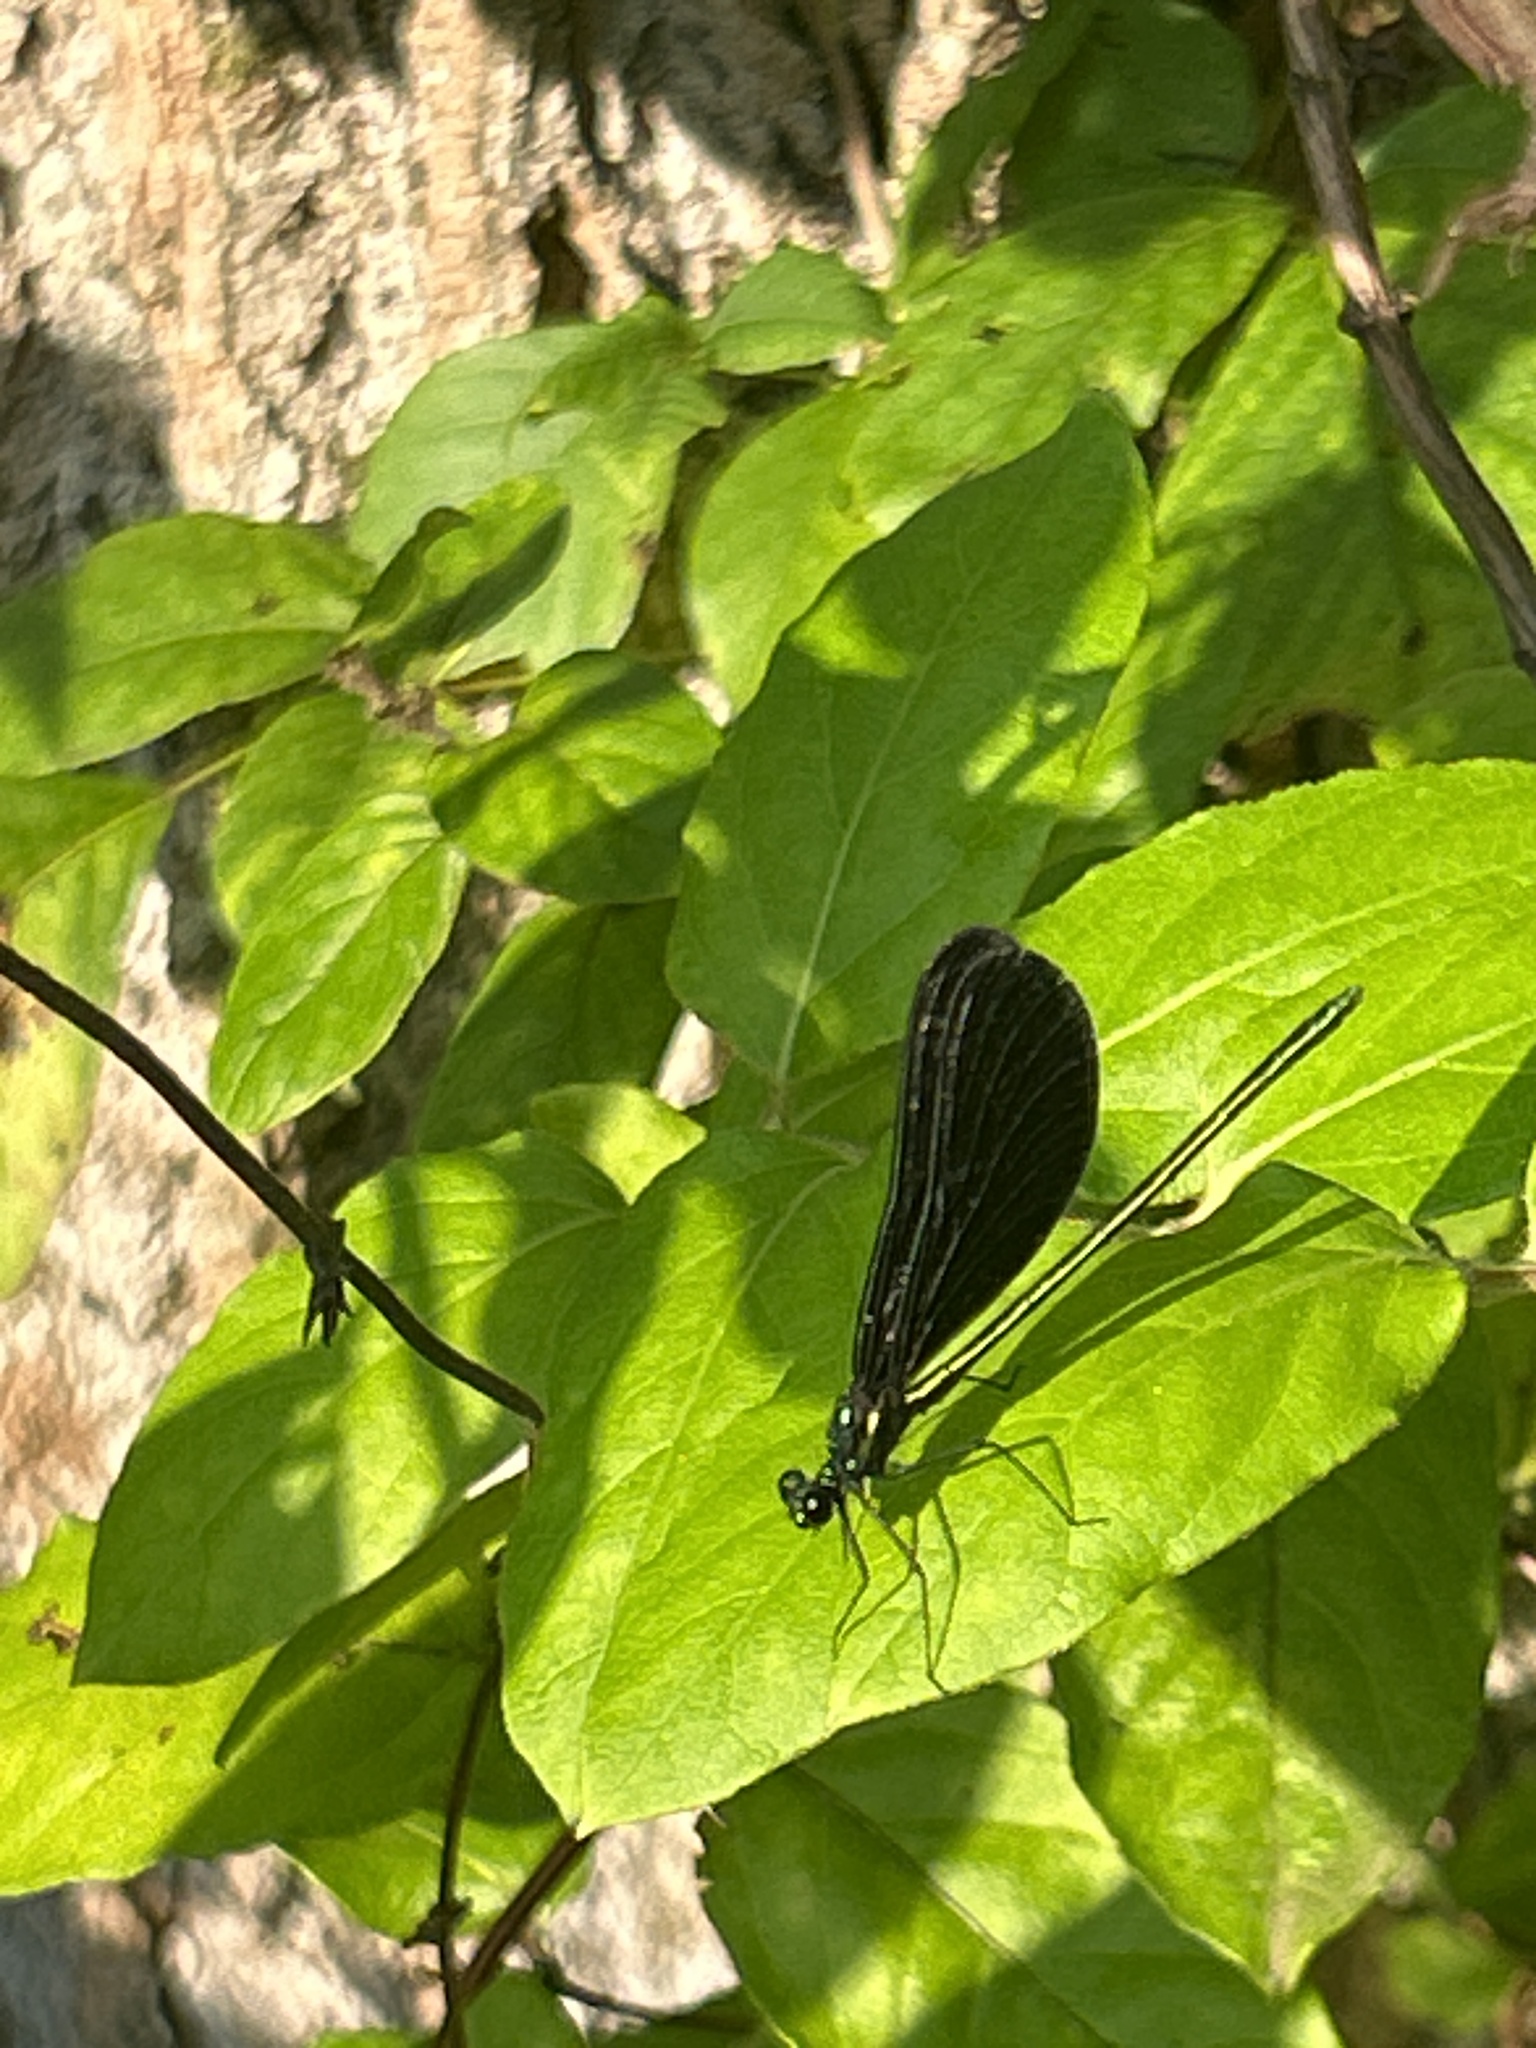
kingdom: Animalia
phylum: Arthropoda
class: Insecta
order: Odonata
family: Calopterygidae
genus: Calopteryx
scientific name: Calopteryx maculata
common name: Ebony jewelwing
